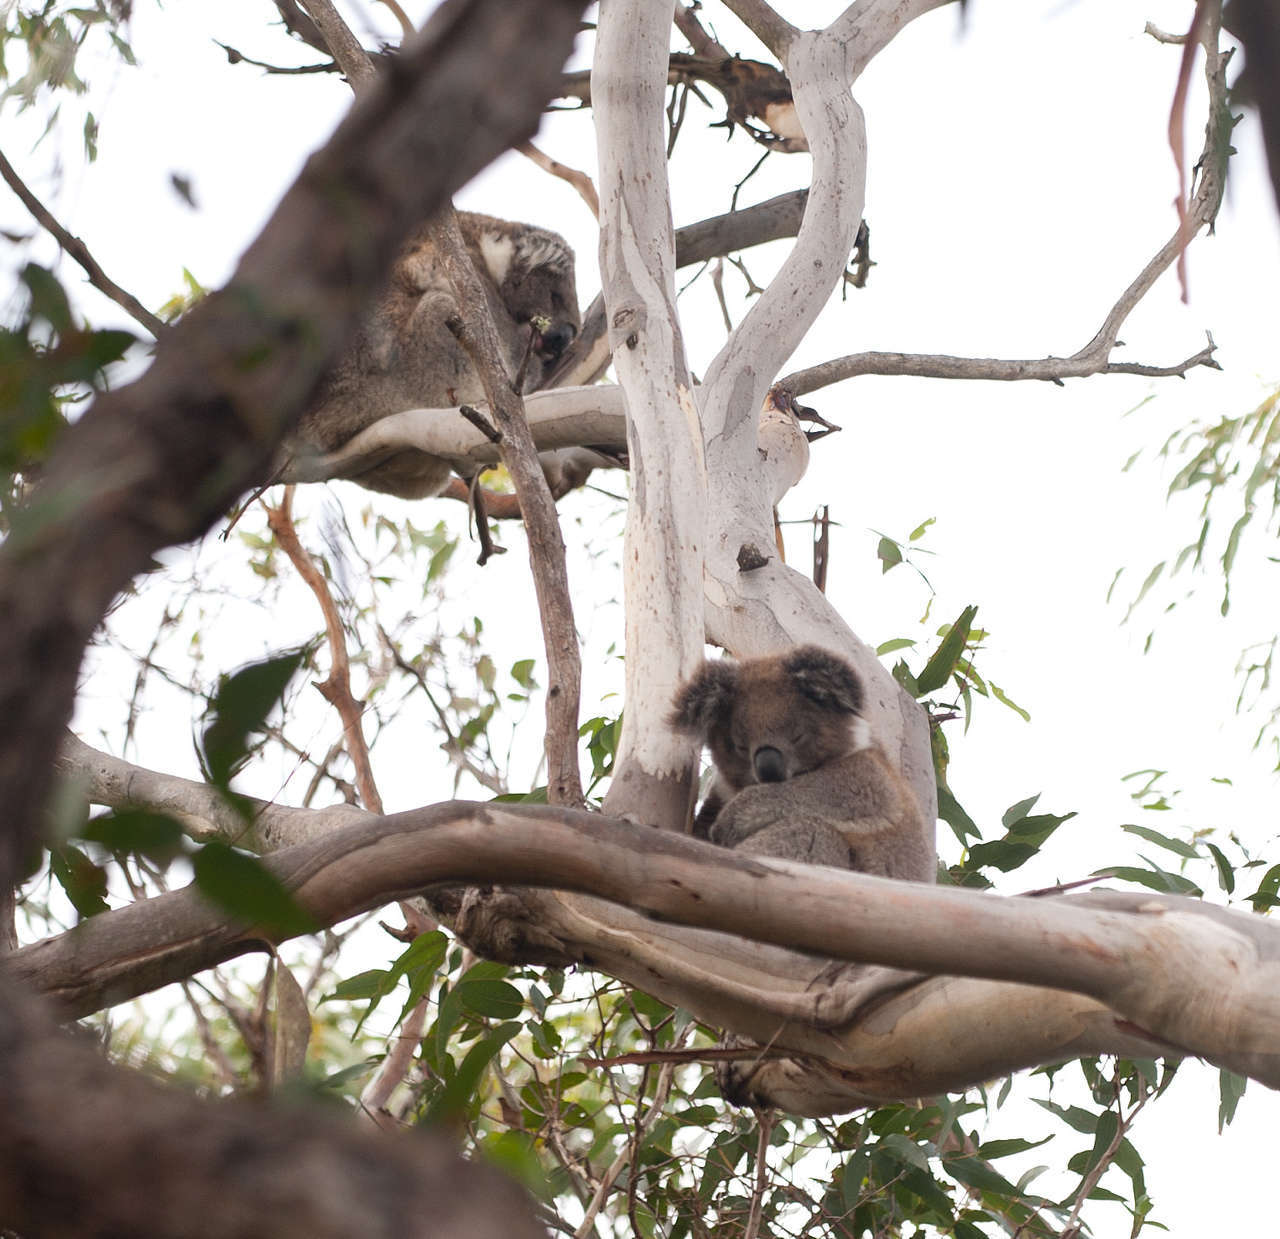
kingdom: Animalia
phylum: Chordata
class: Mammalia
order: Diprotodontia
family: Phascolarctidae
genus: Phascolarctos
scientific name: Phascolarctos cinereus
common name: Koala
